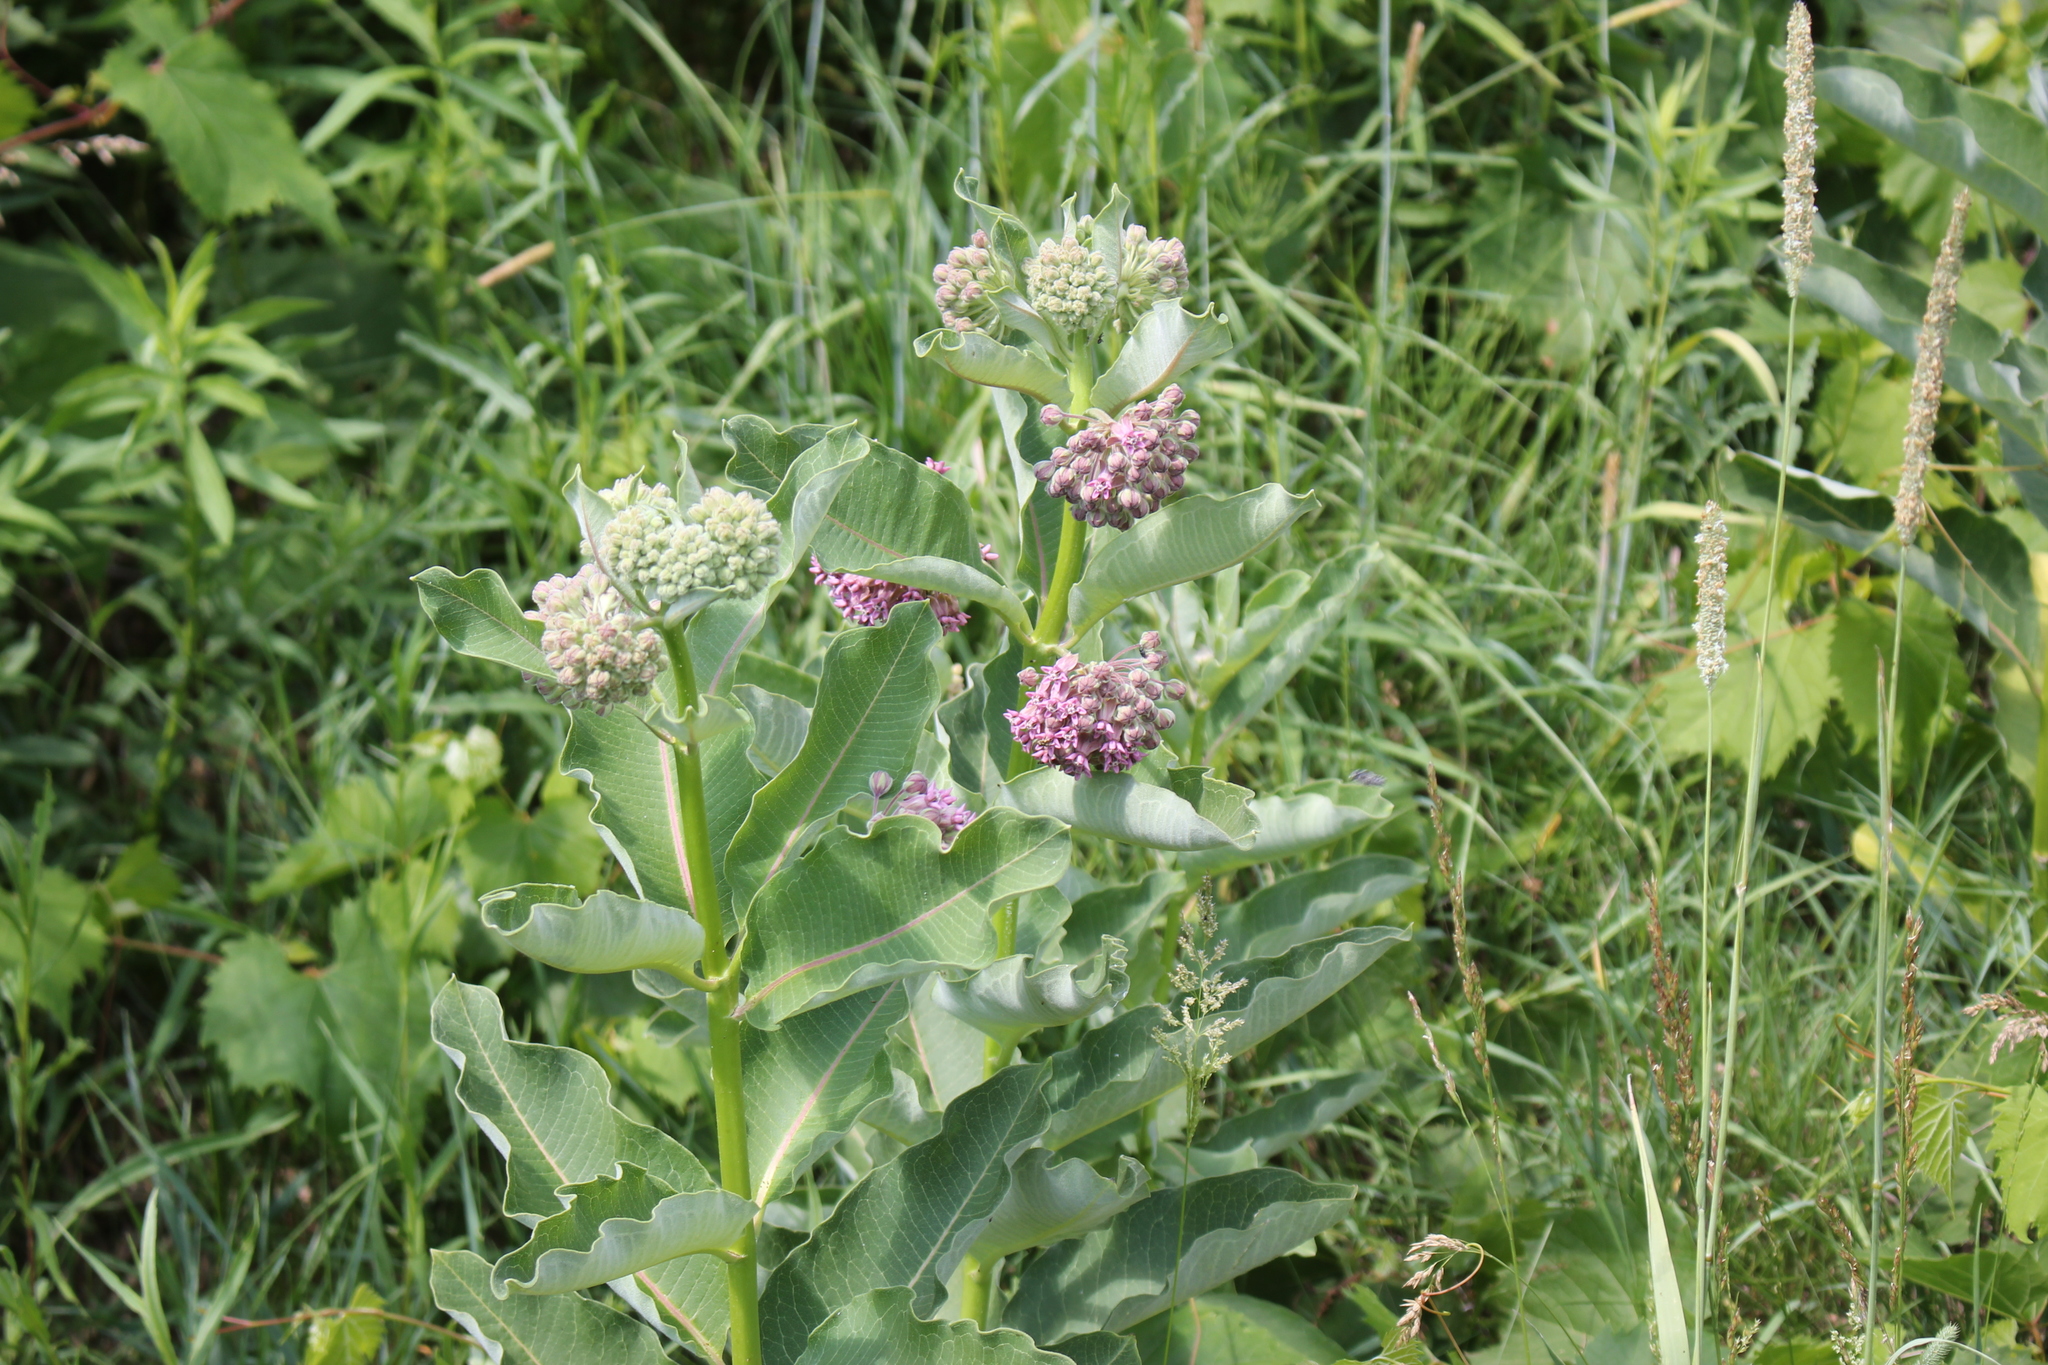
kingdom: Plantae
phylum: Tracheophyta
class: Magnoliopsida
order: Gentianales
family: Apocynaceae
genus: Asclepias
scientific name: Asclepias syriaca
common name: Common milkweed
